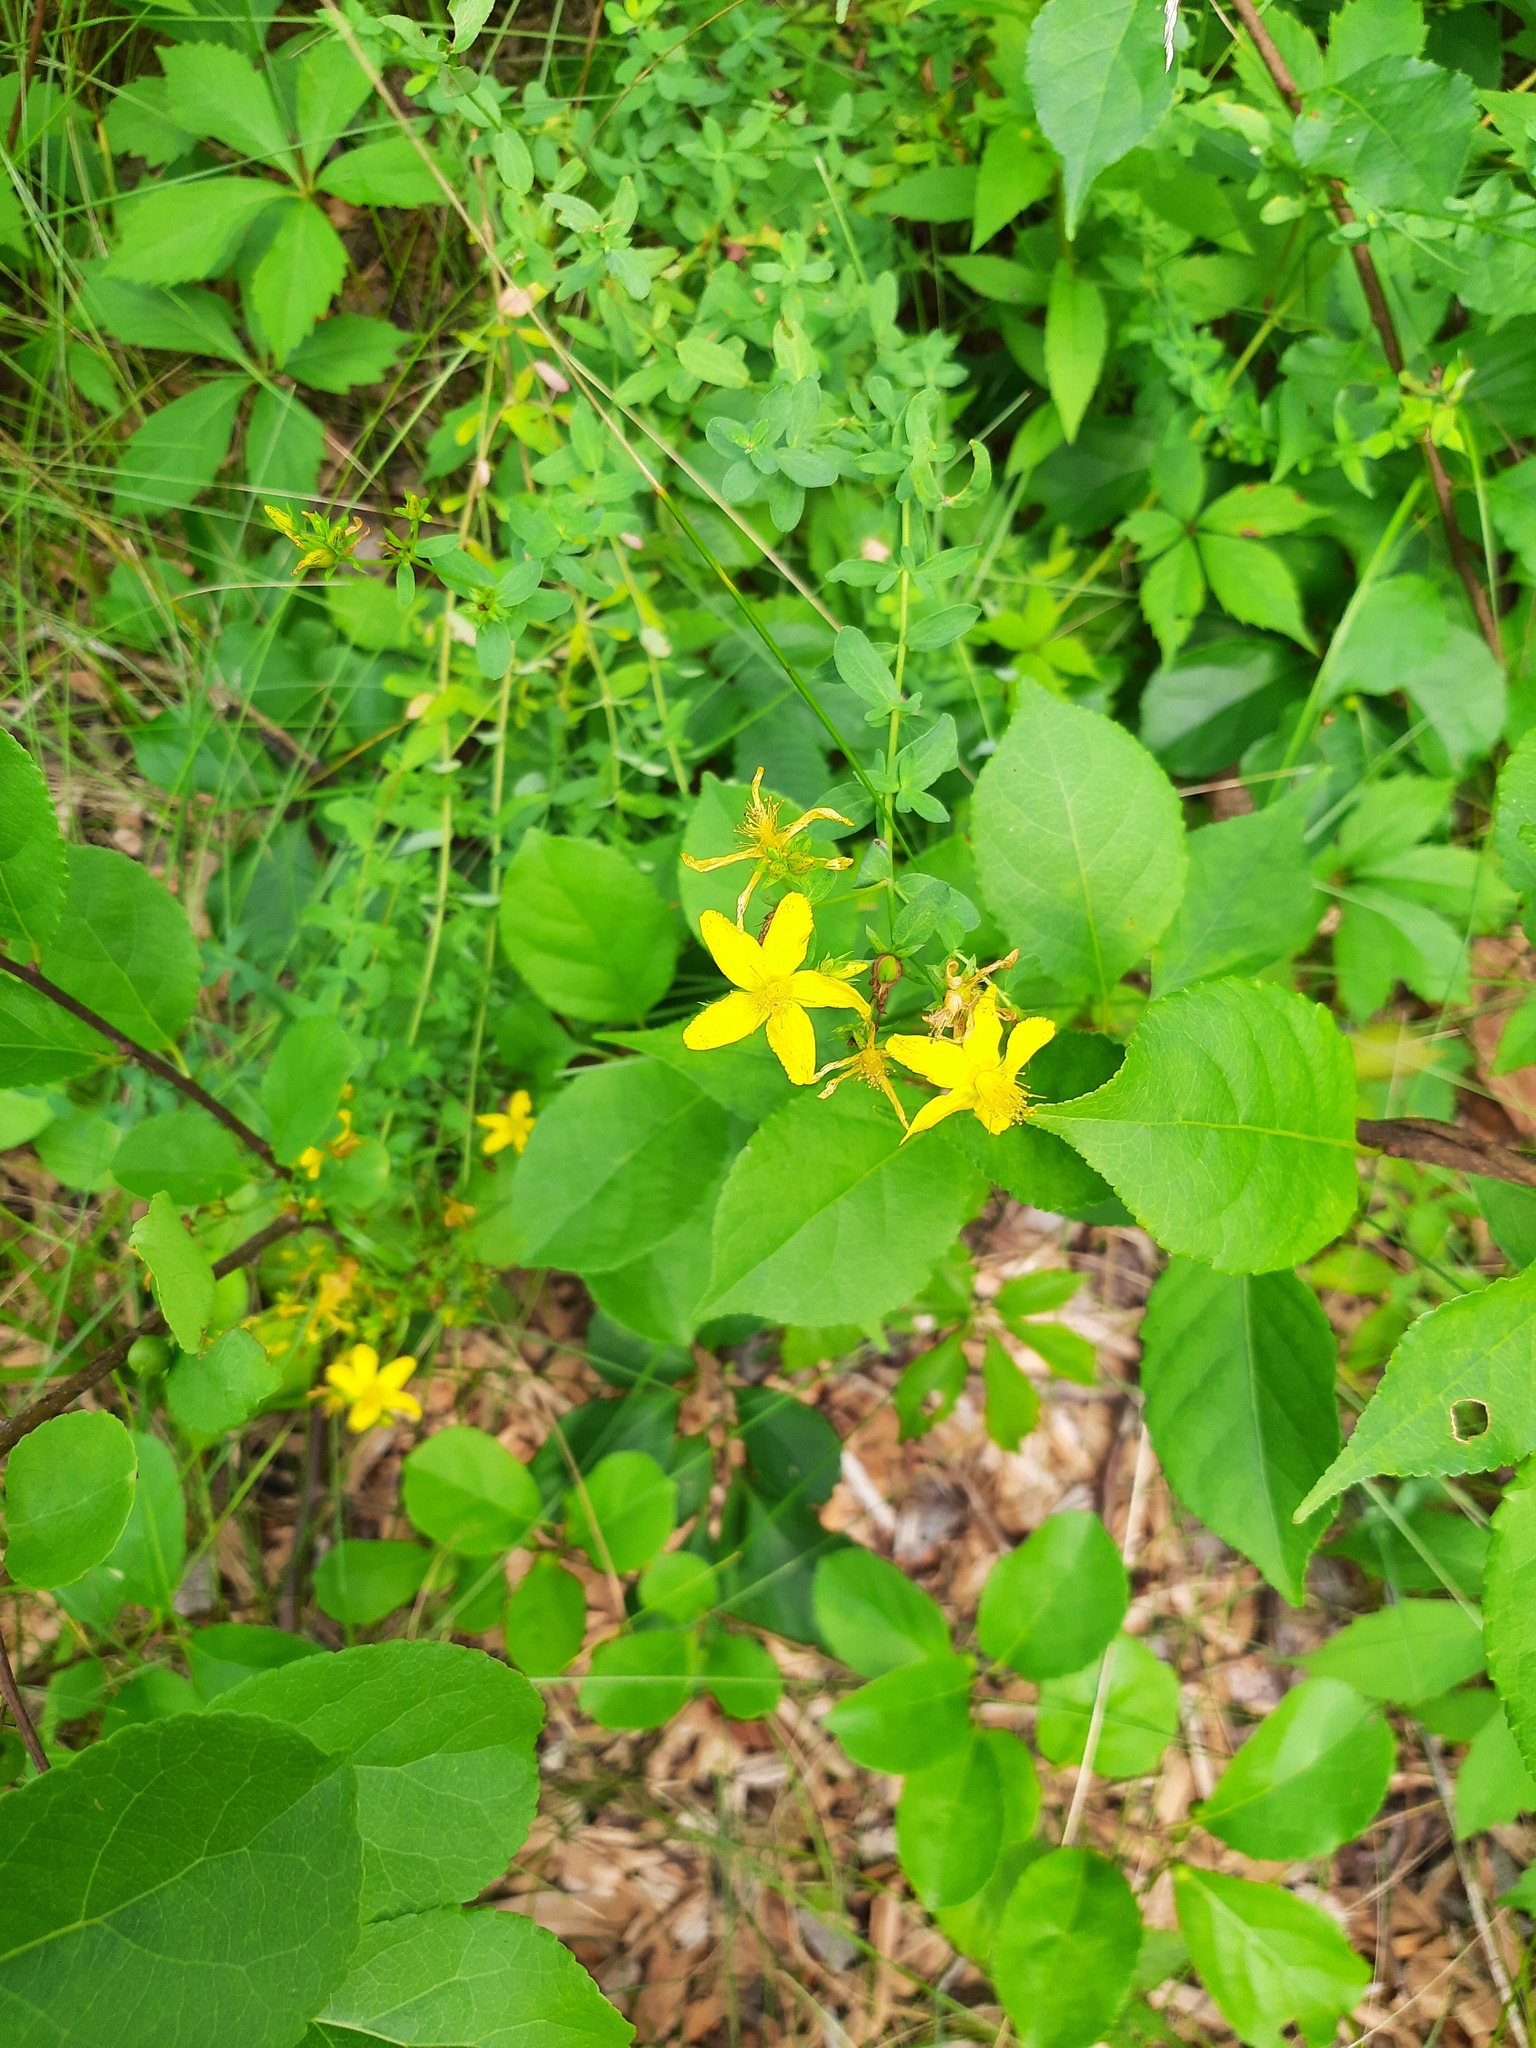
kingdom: Plantae
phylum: Tracheophyta
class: Magnoliopsida
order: Malpighiales
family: Hypericaceae
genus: Hypericum
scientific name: Hypericum perforatum
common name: Common st. johnswort
